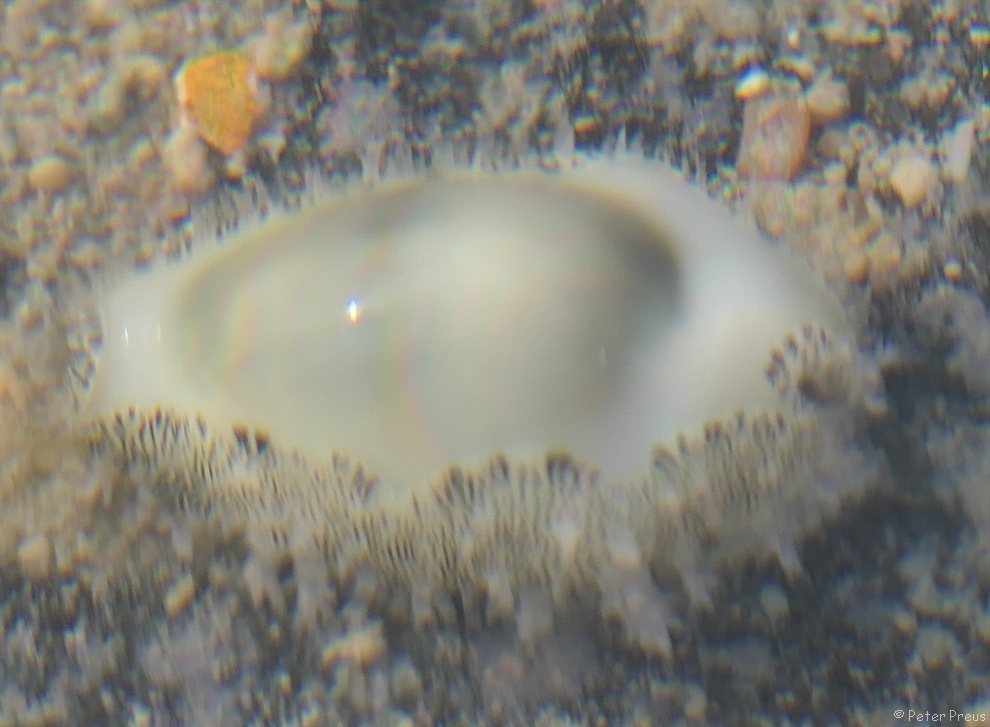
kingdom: Animalia
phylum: Mollusca
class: Gastropoda
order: Littorinimorpha
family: Cypraeidae
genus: Monetaria
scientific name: Monetaria moneta
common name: Money cowrie
